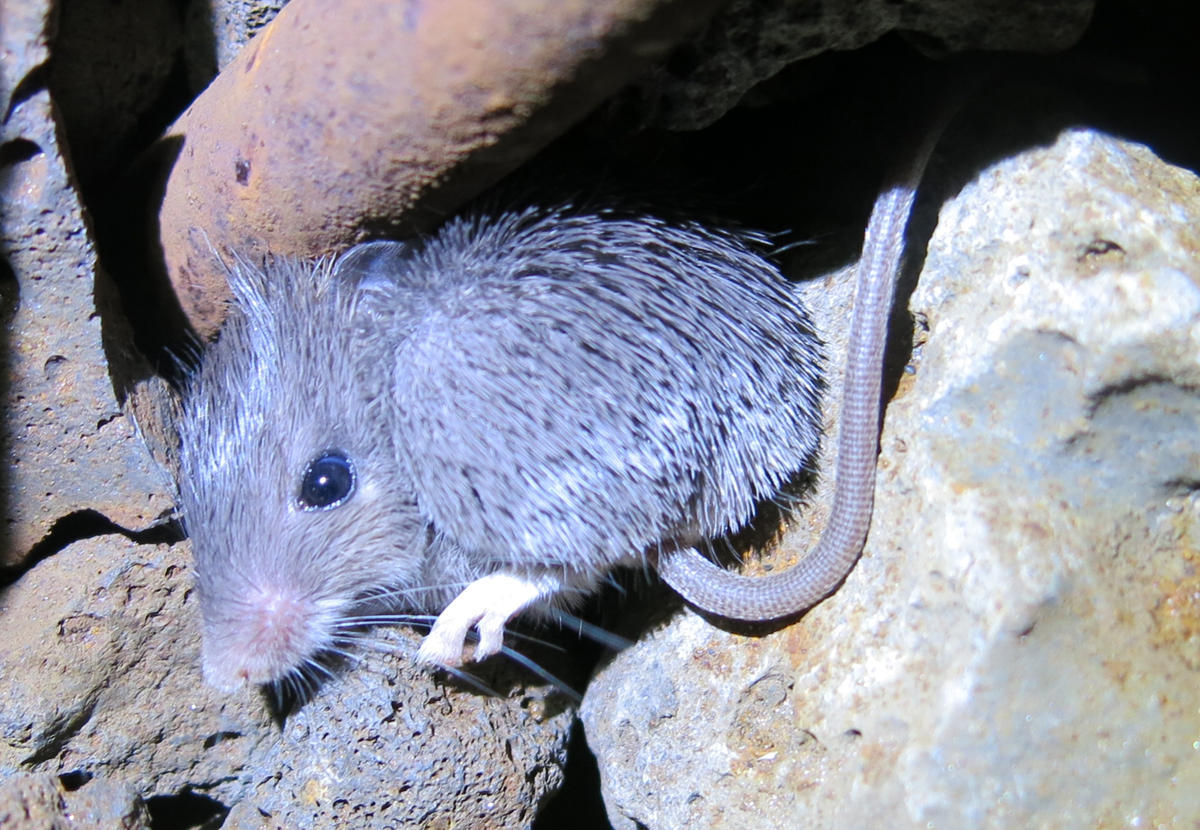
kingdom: Animalia
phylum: Chordata
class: Mammalia
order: Rodentia
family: Muridae
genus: Acomys
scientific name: Acomys selousi
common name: Selous’s spiny mouse
